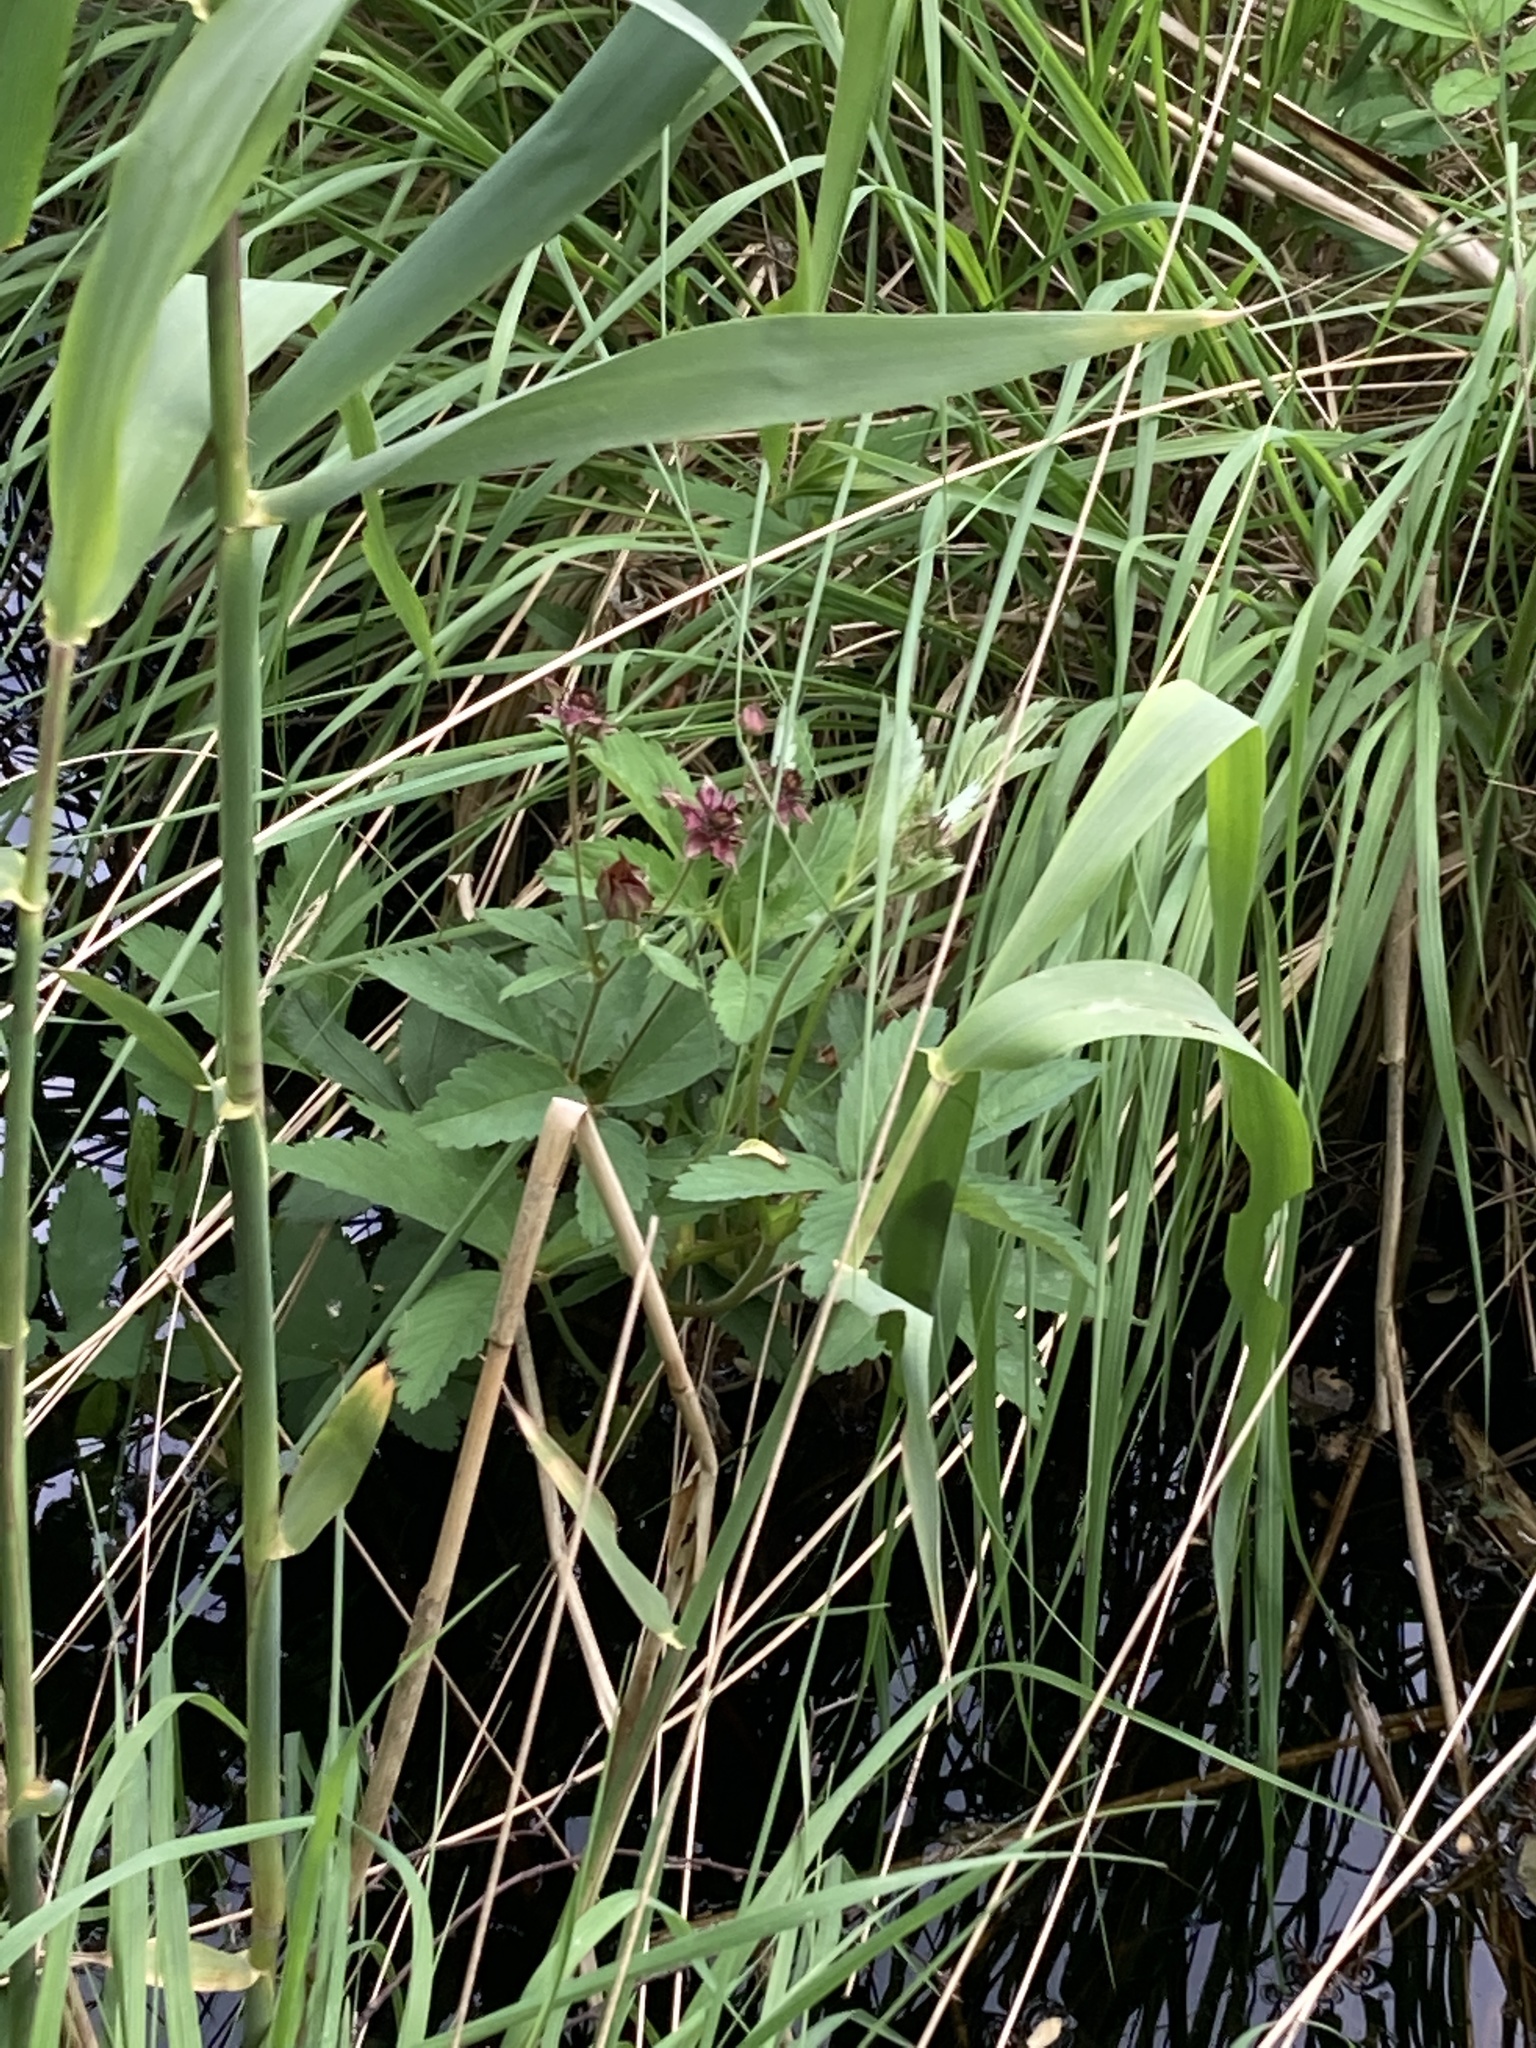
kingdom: Plantae
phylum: Tracheophyta
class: Magnoliopsida
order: Rosales
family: Rosaceae
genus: Comarum
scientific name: Comarum palustre
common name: Marsh cinquefoil
